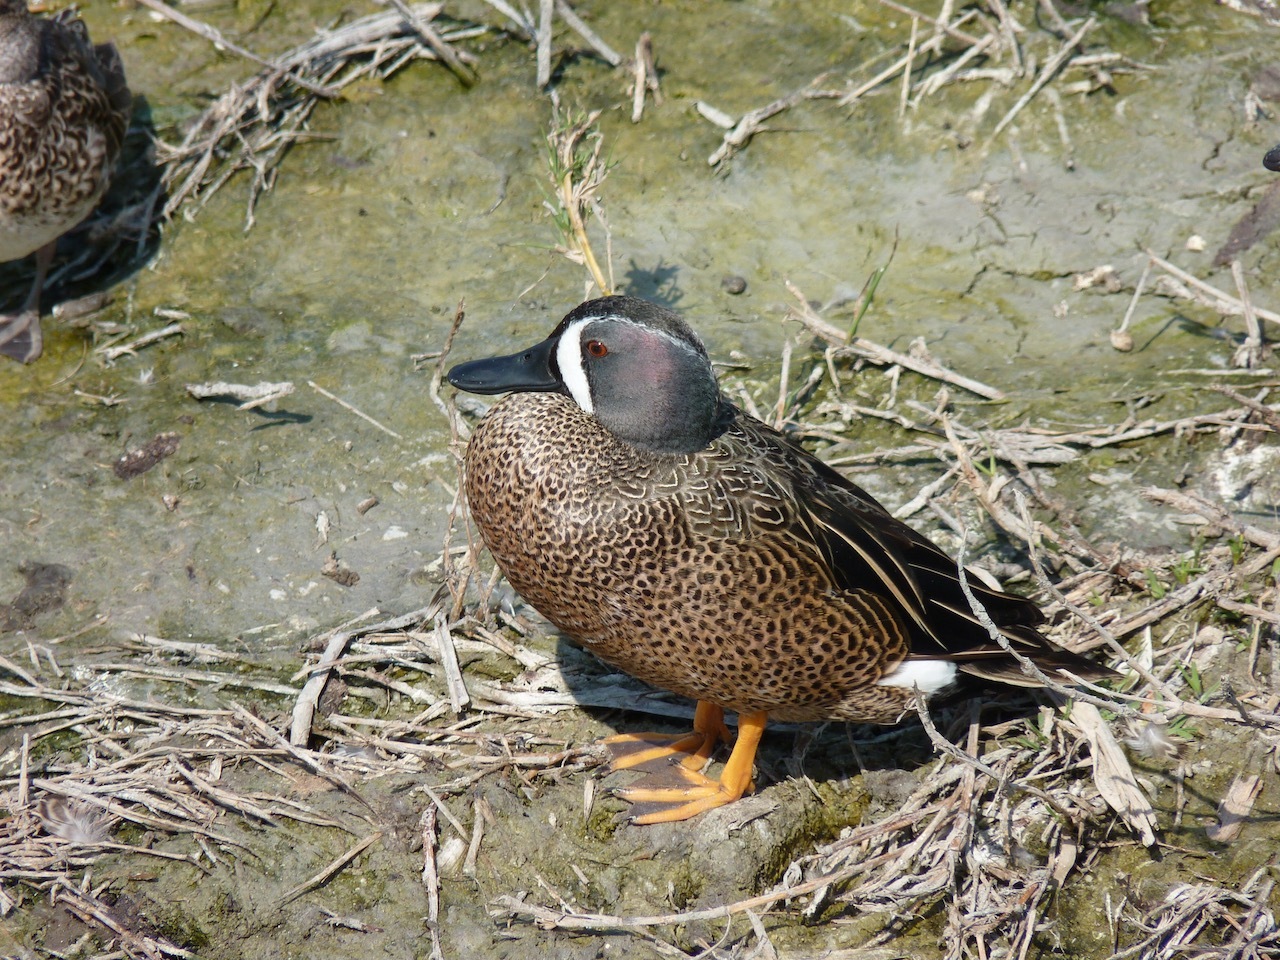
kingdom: Animalia
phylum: Chordata
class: Aves
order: Anseriformes
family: Anatidae
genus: Spatula
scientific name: Spatula discors
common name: Blue-winged teal
